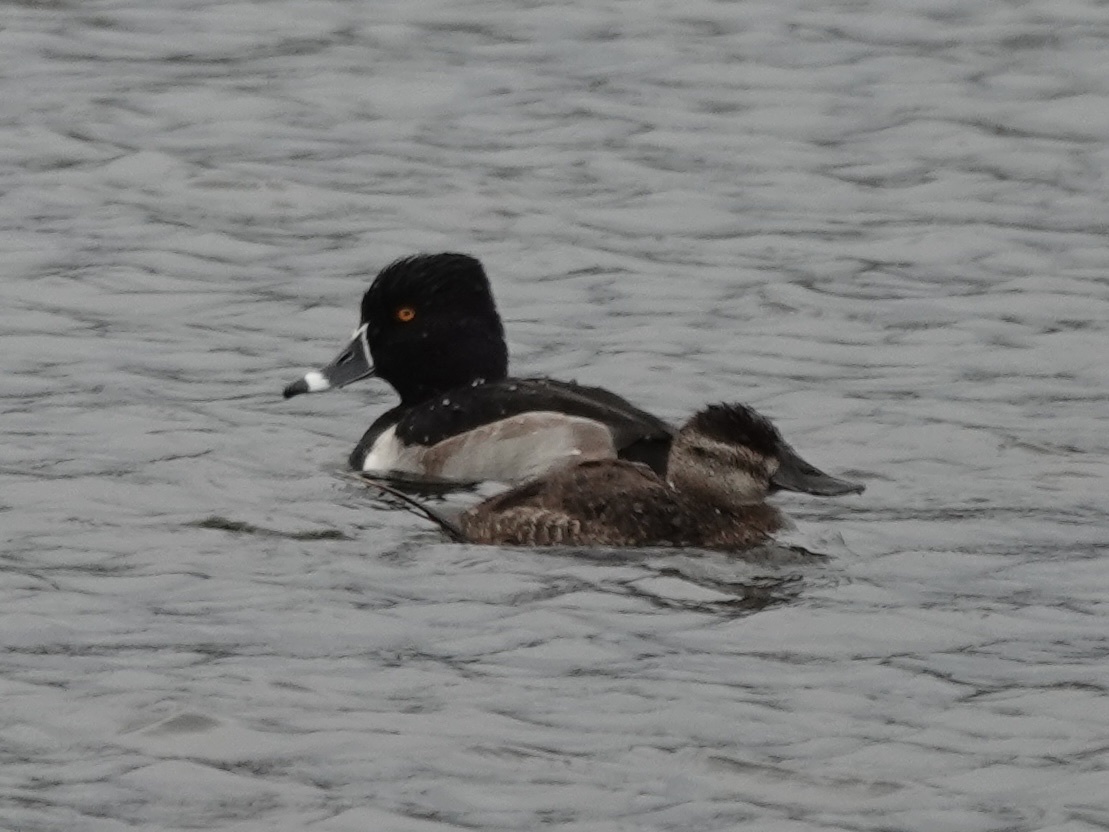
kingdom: Animalia
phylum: Chordata
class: Aves
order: Anseriformes
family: Anatidae
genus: Aythya
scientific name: Aythya collaris
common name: Ring-necked duck
